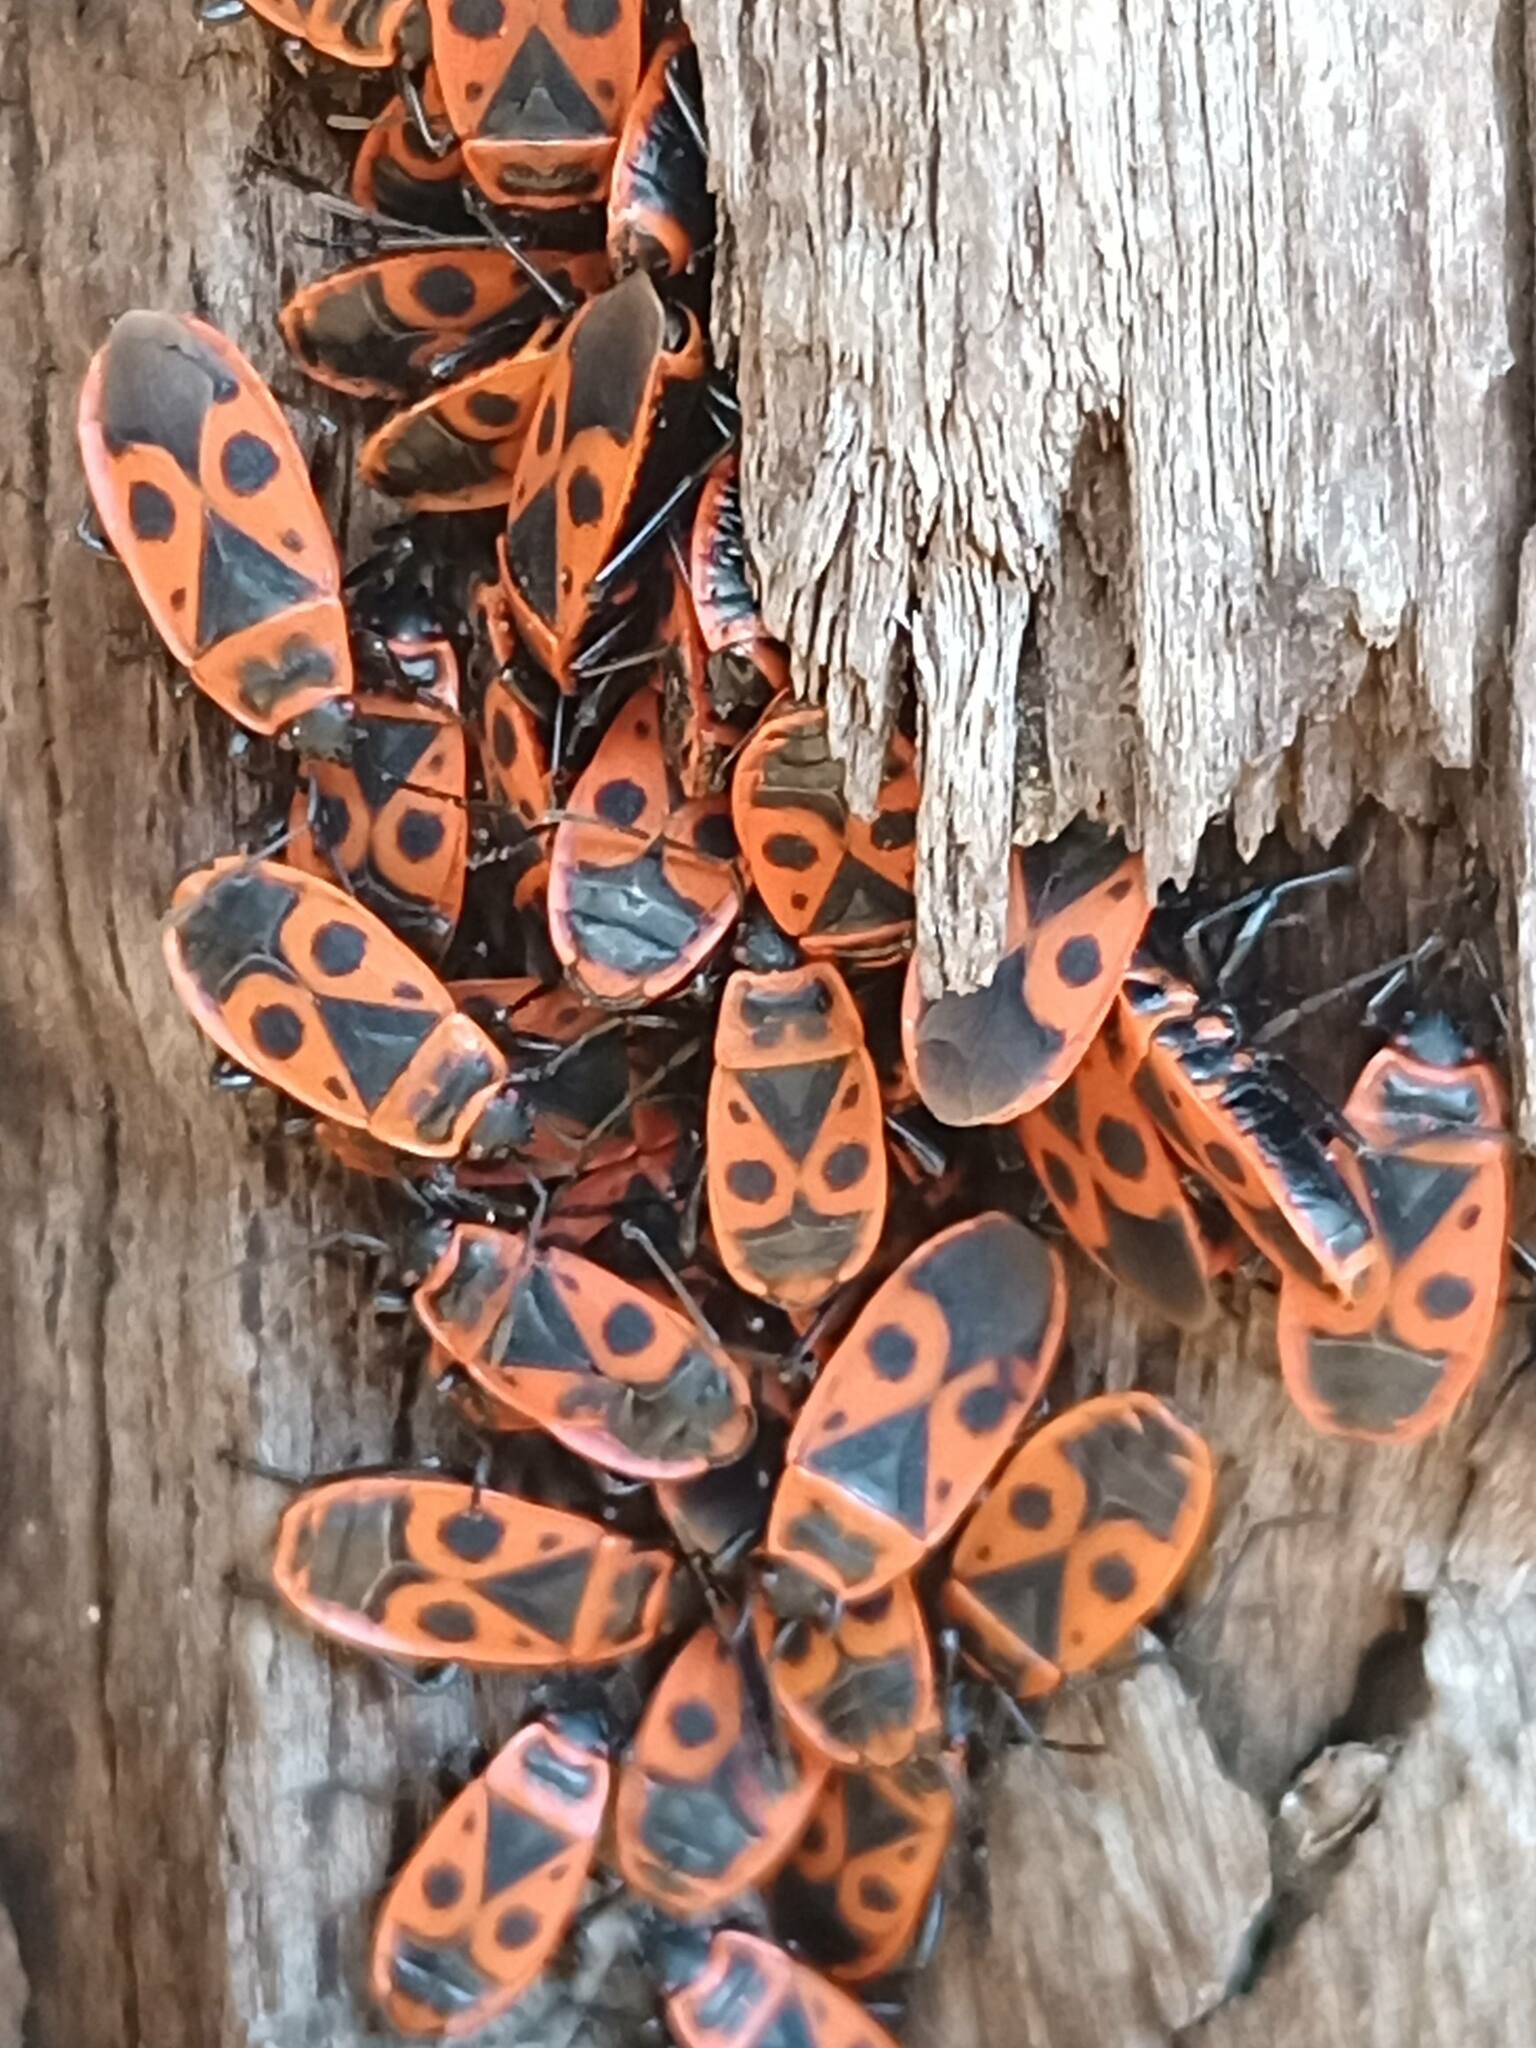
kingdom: Animalia
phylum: Arthropoda
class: Insecta
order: Hemiptera
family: Pyrrhocoridae
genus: Pyrrhocoris
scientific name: Pyrrhocoris apterus
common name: Firebug
